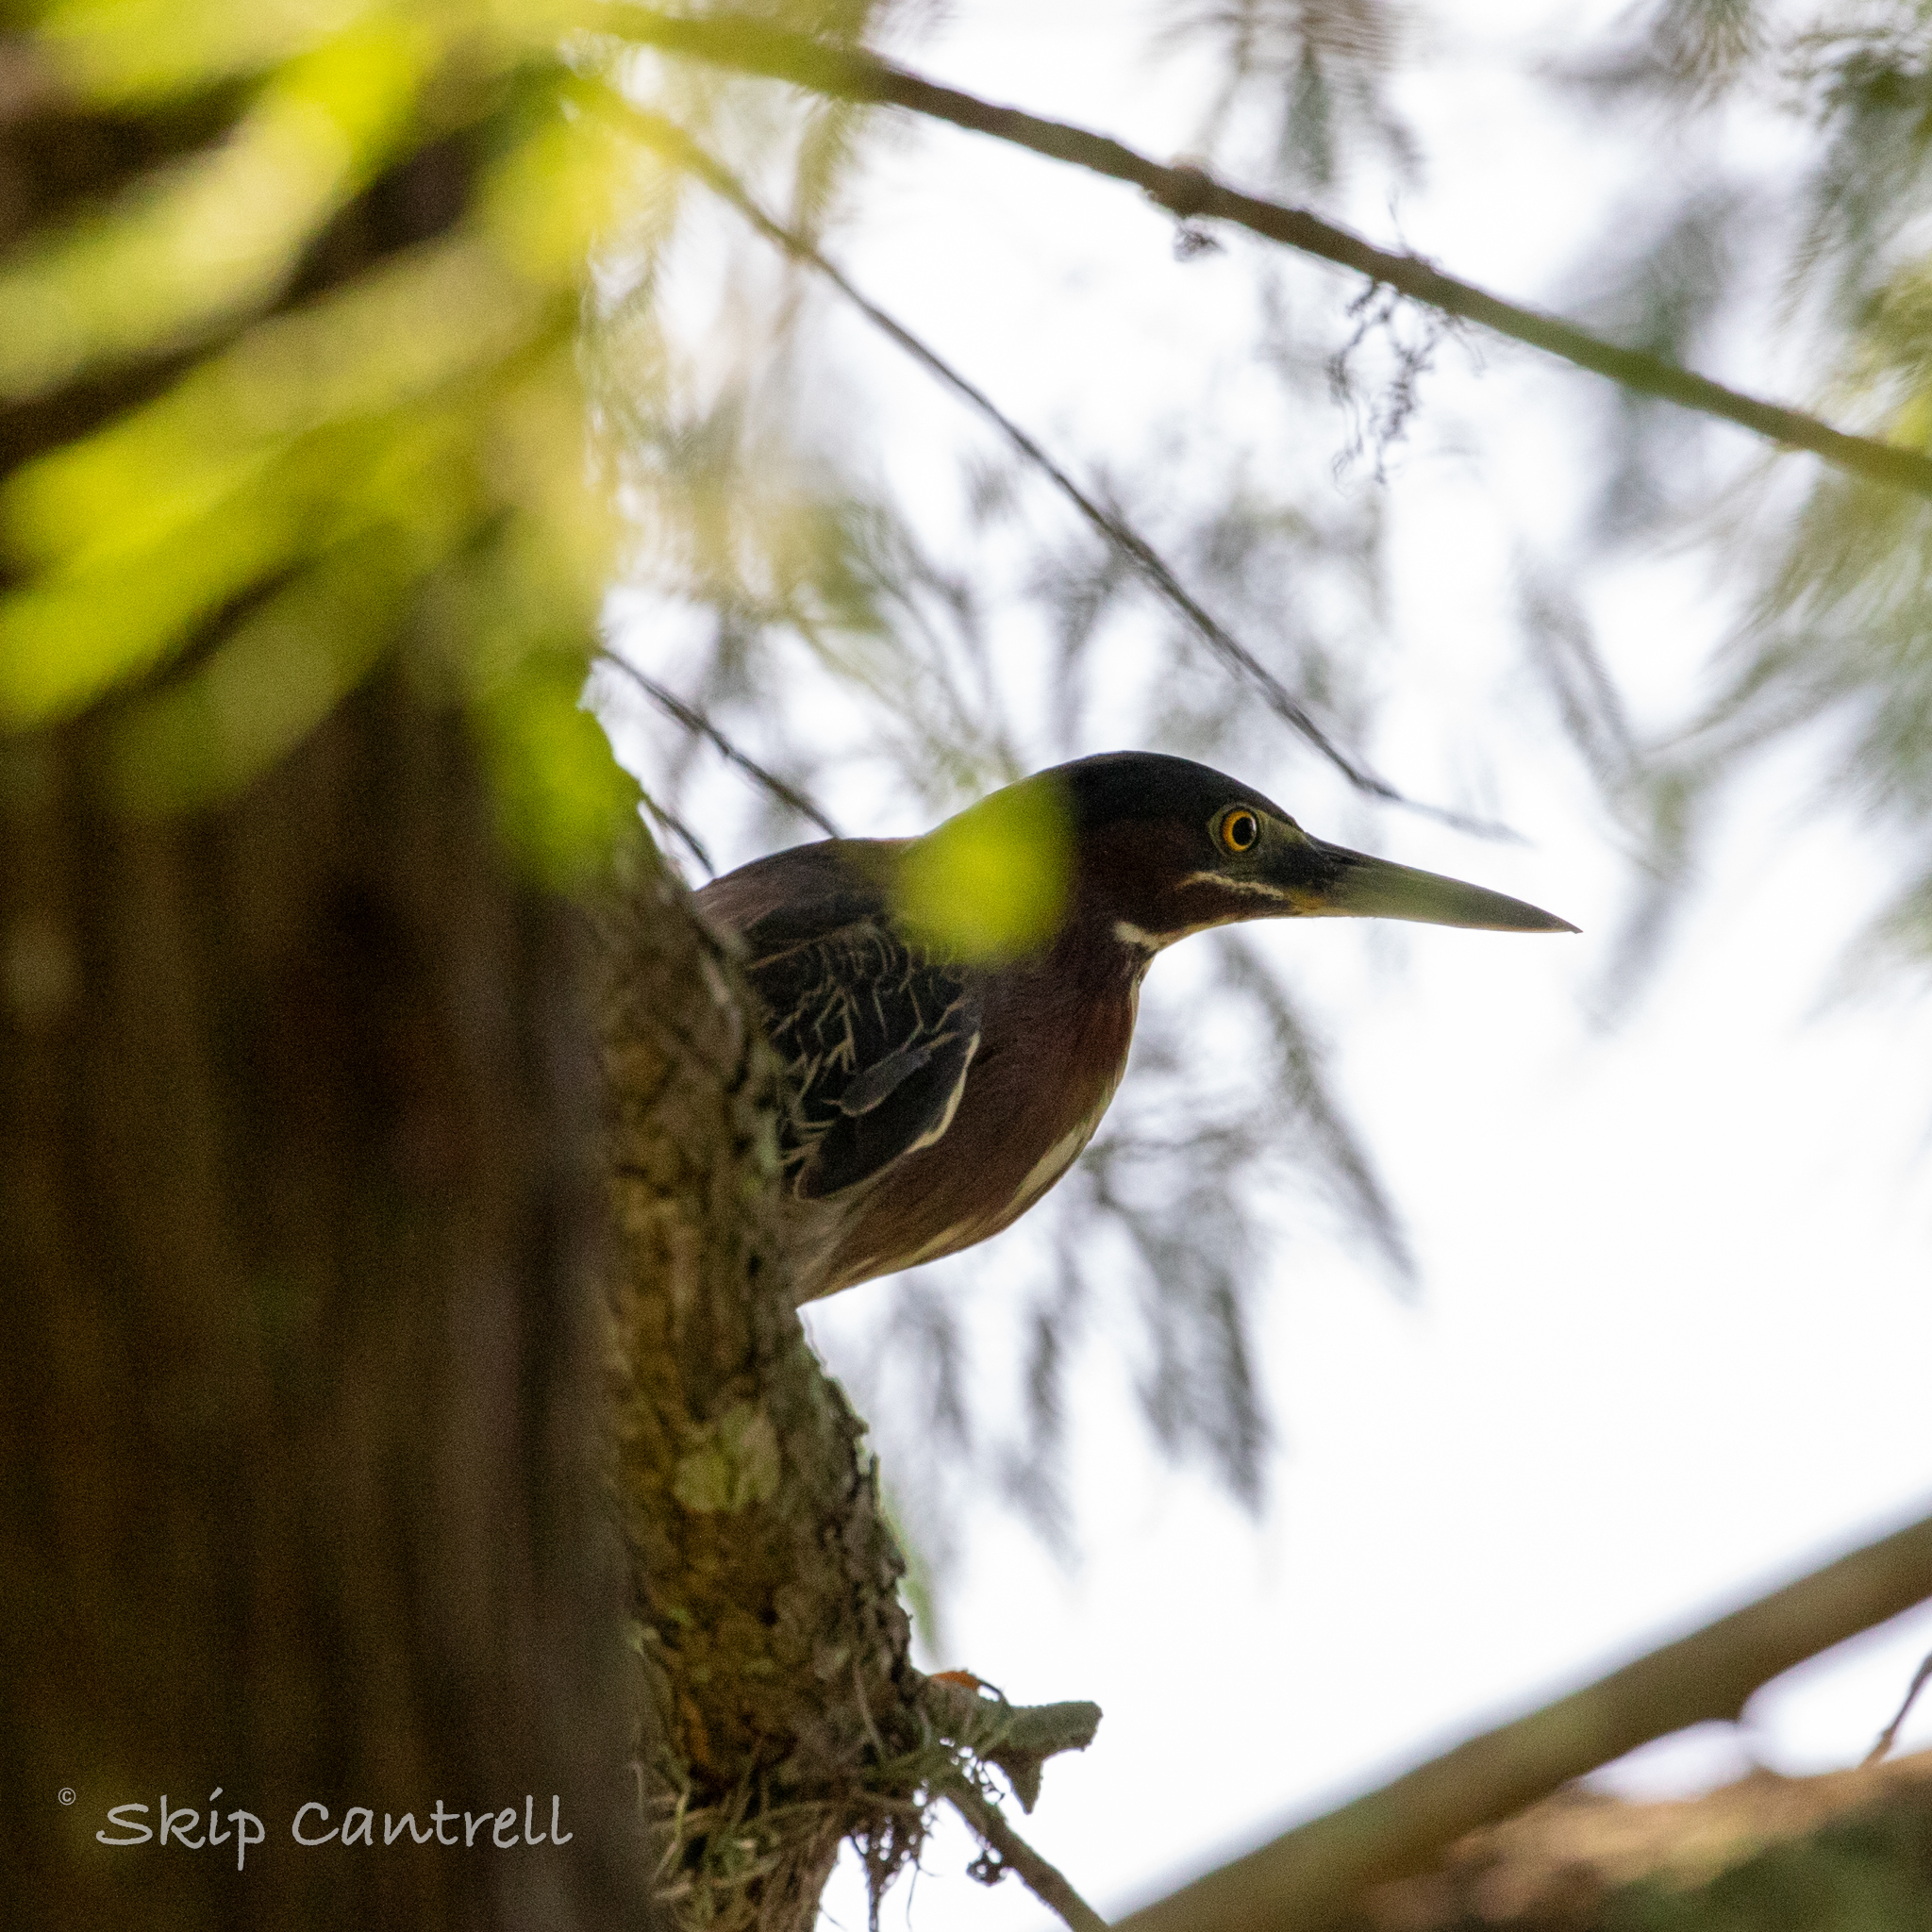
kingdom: Animalia
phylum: Chordata
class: Aves
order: Pelecaniformes
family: Ardeidae
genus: Butorides
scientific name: Butorides virescens
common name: Green heron
